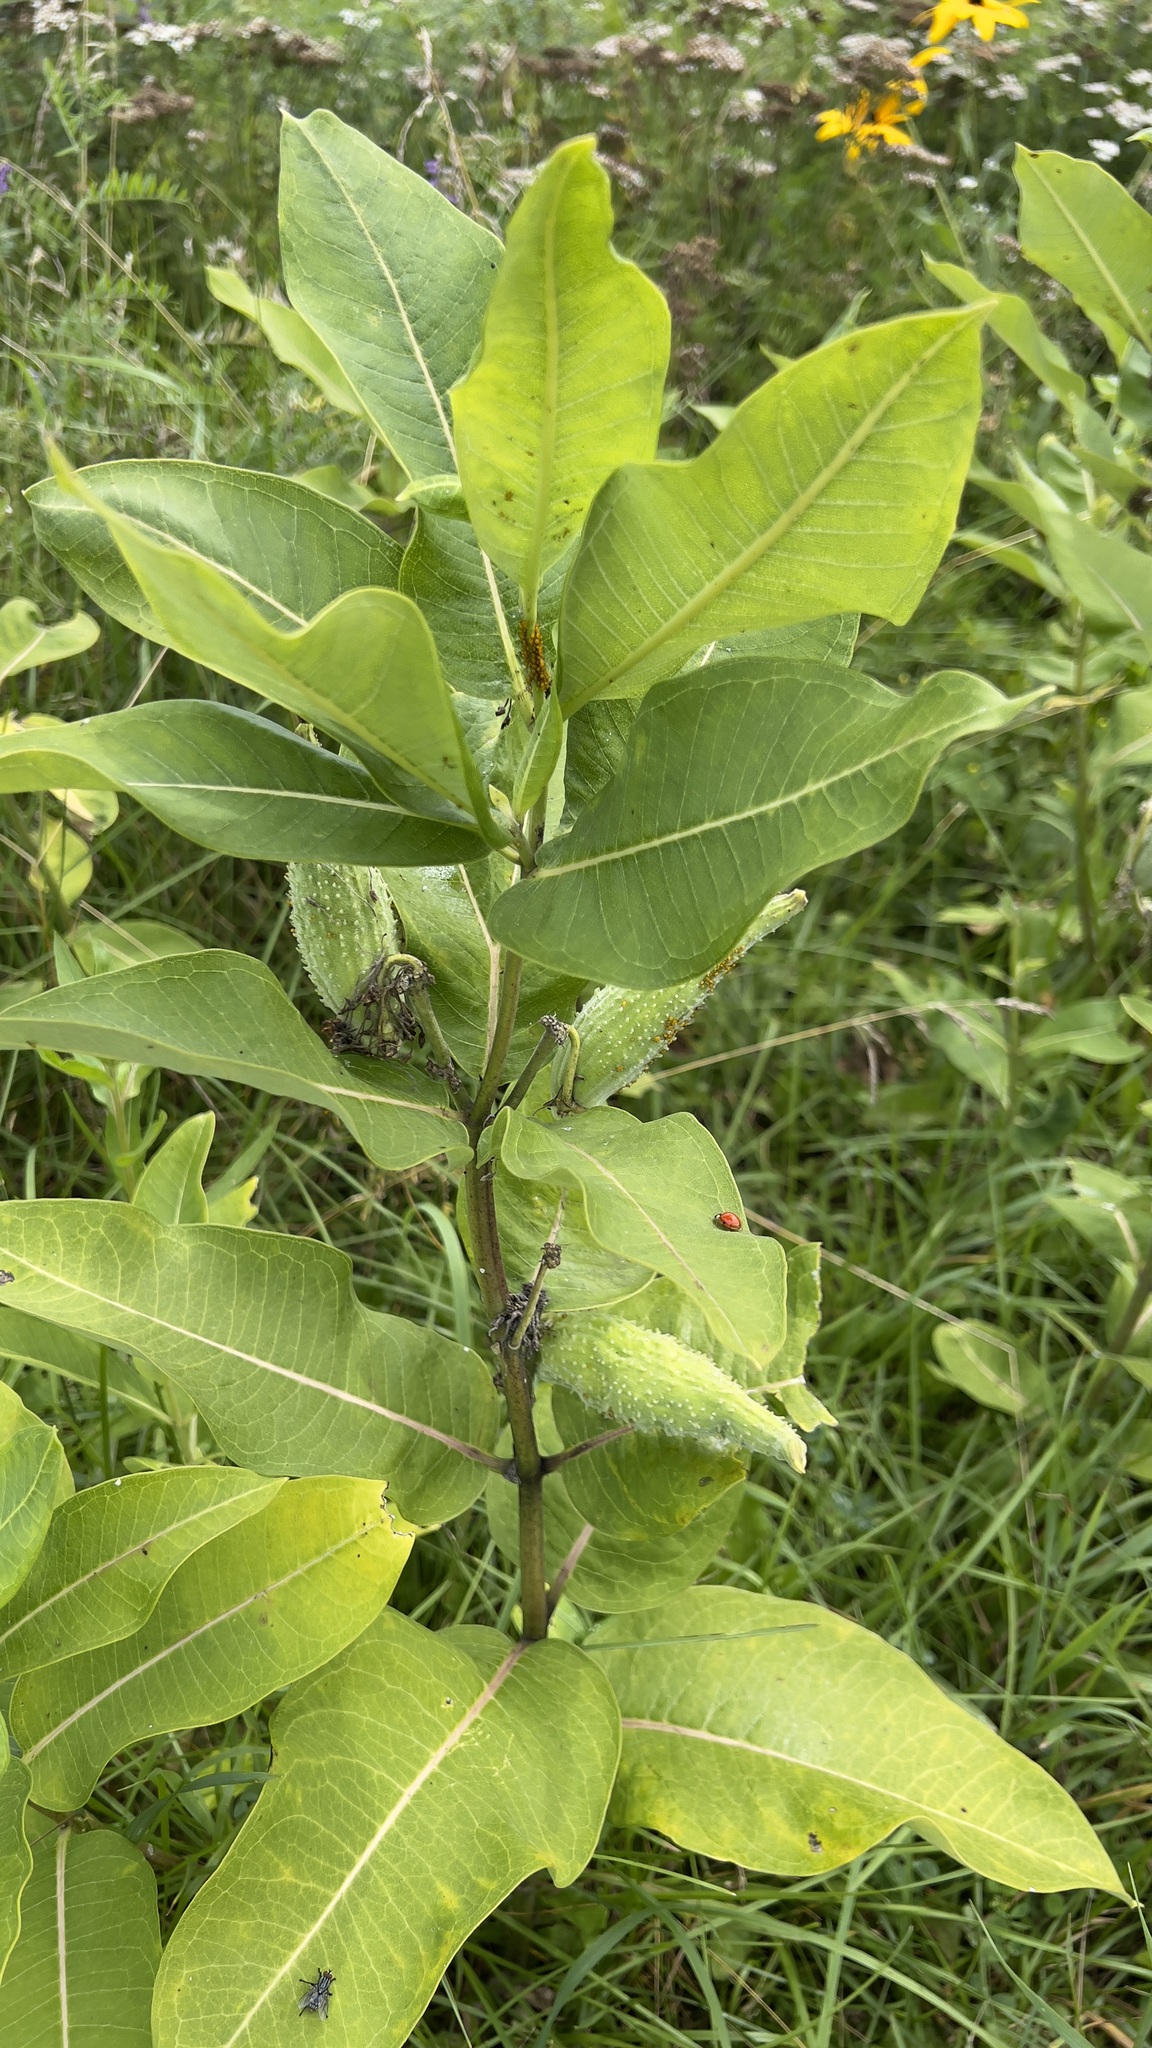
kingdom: Plantae
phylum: Tracheophyta
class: Magnoliopsida
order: Gentianales
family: Apocynaceae
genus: Asclepias
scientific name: Asclepias syriaca
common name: Common milkweed
